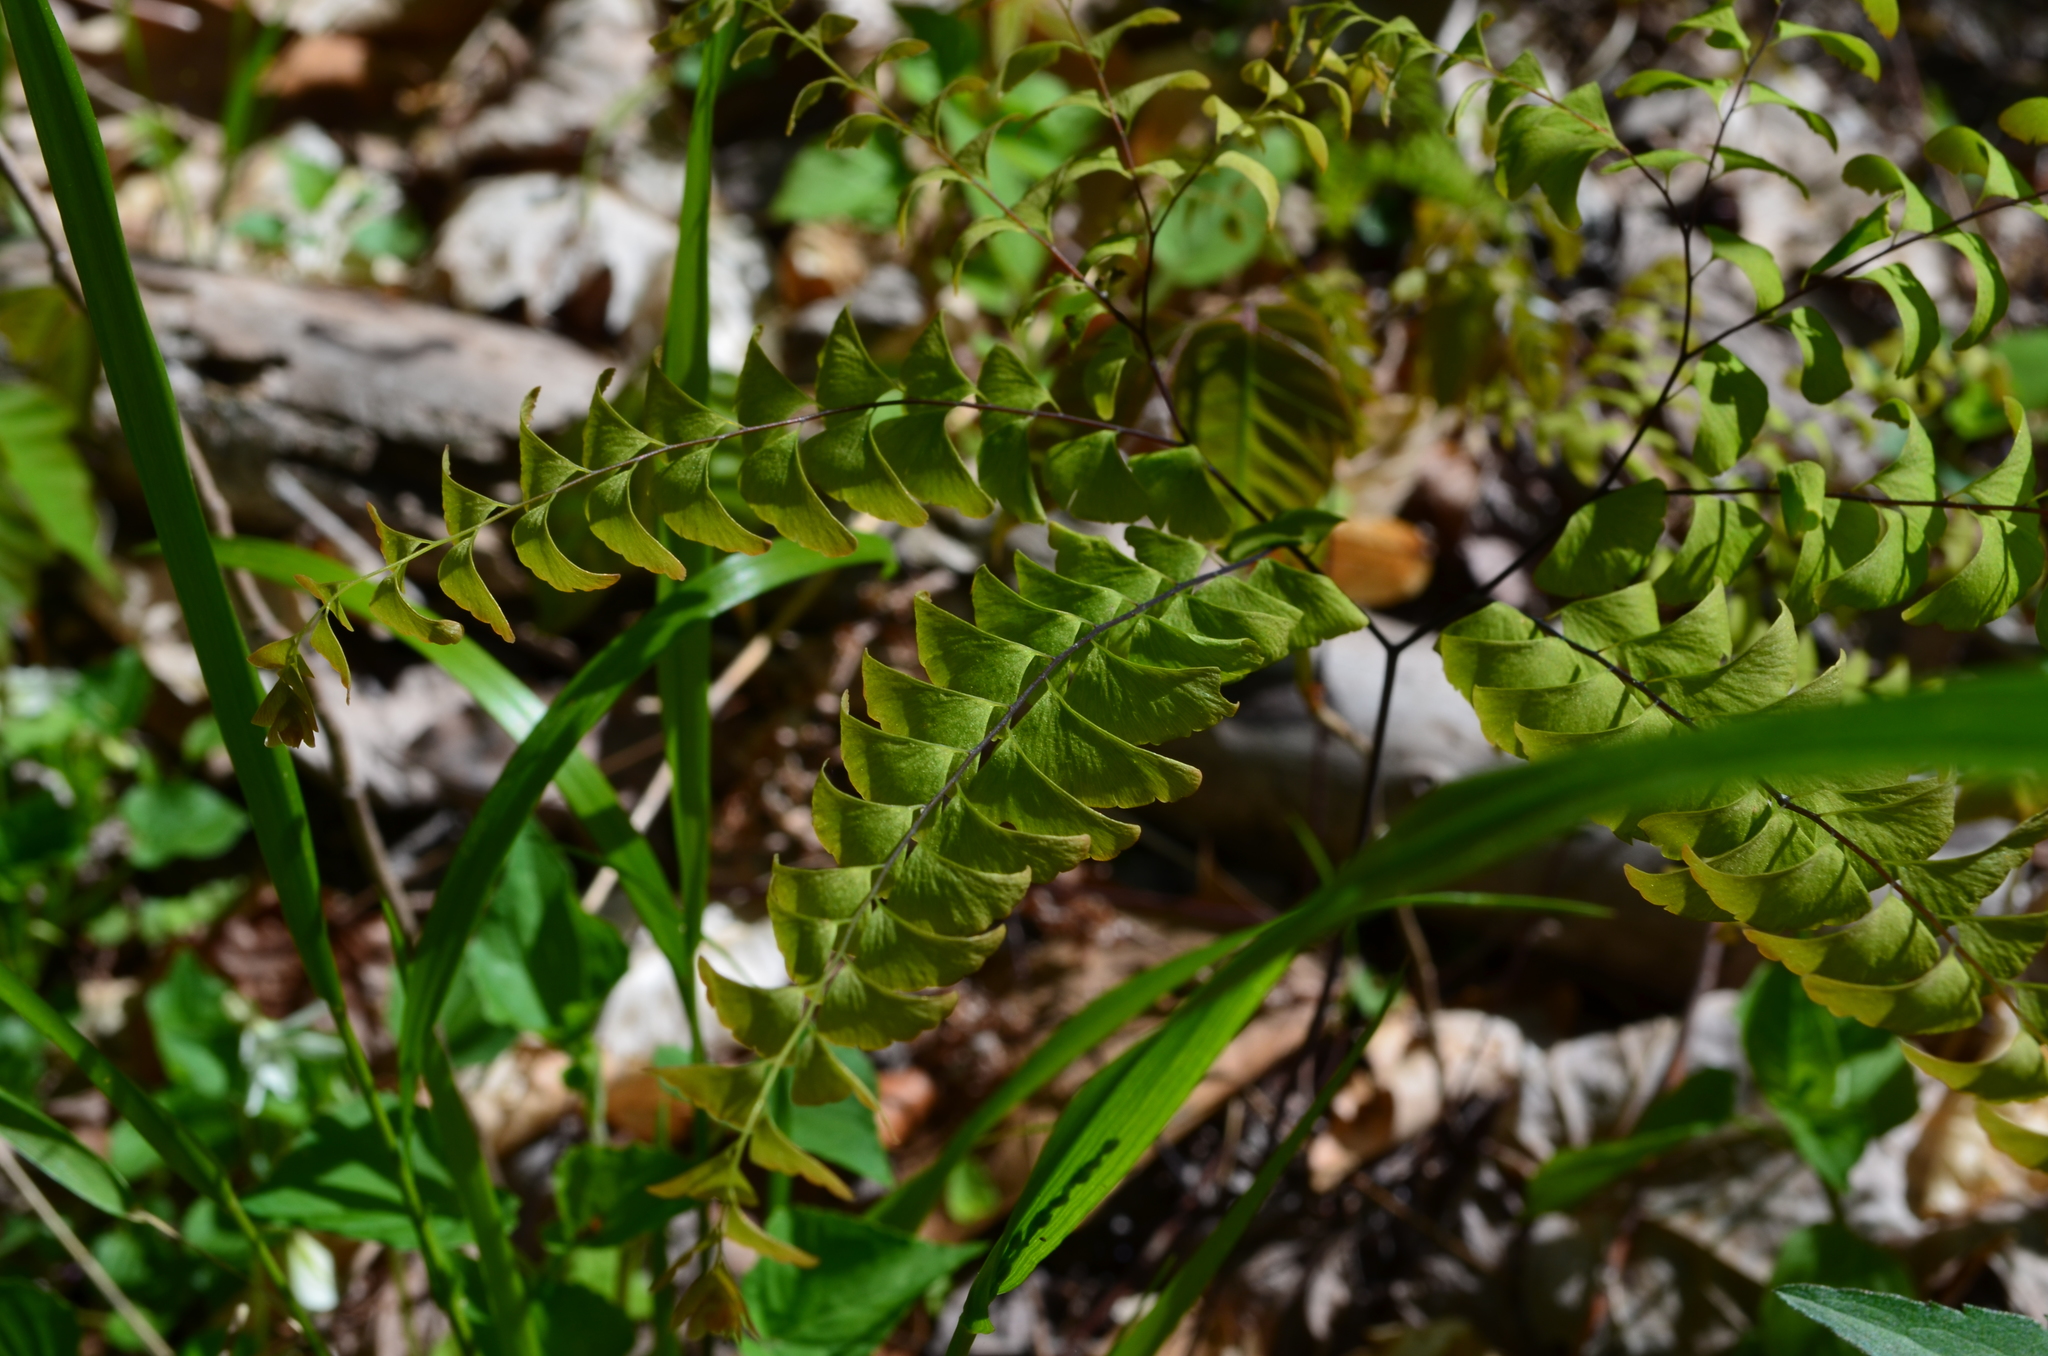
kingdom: Plantae
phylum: Tracheophyta
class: Polypodiopsida
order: Polypodiales
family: Pteridaceae
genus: Adiantum
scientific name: Adiantum pedatum
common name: Five-finger fern
